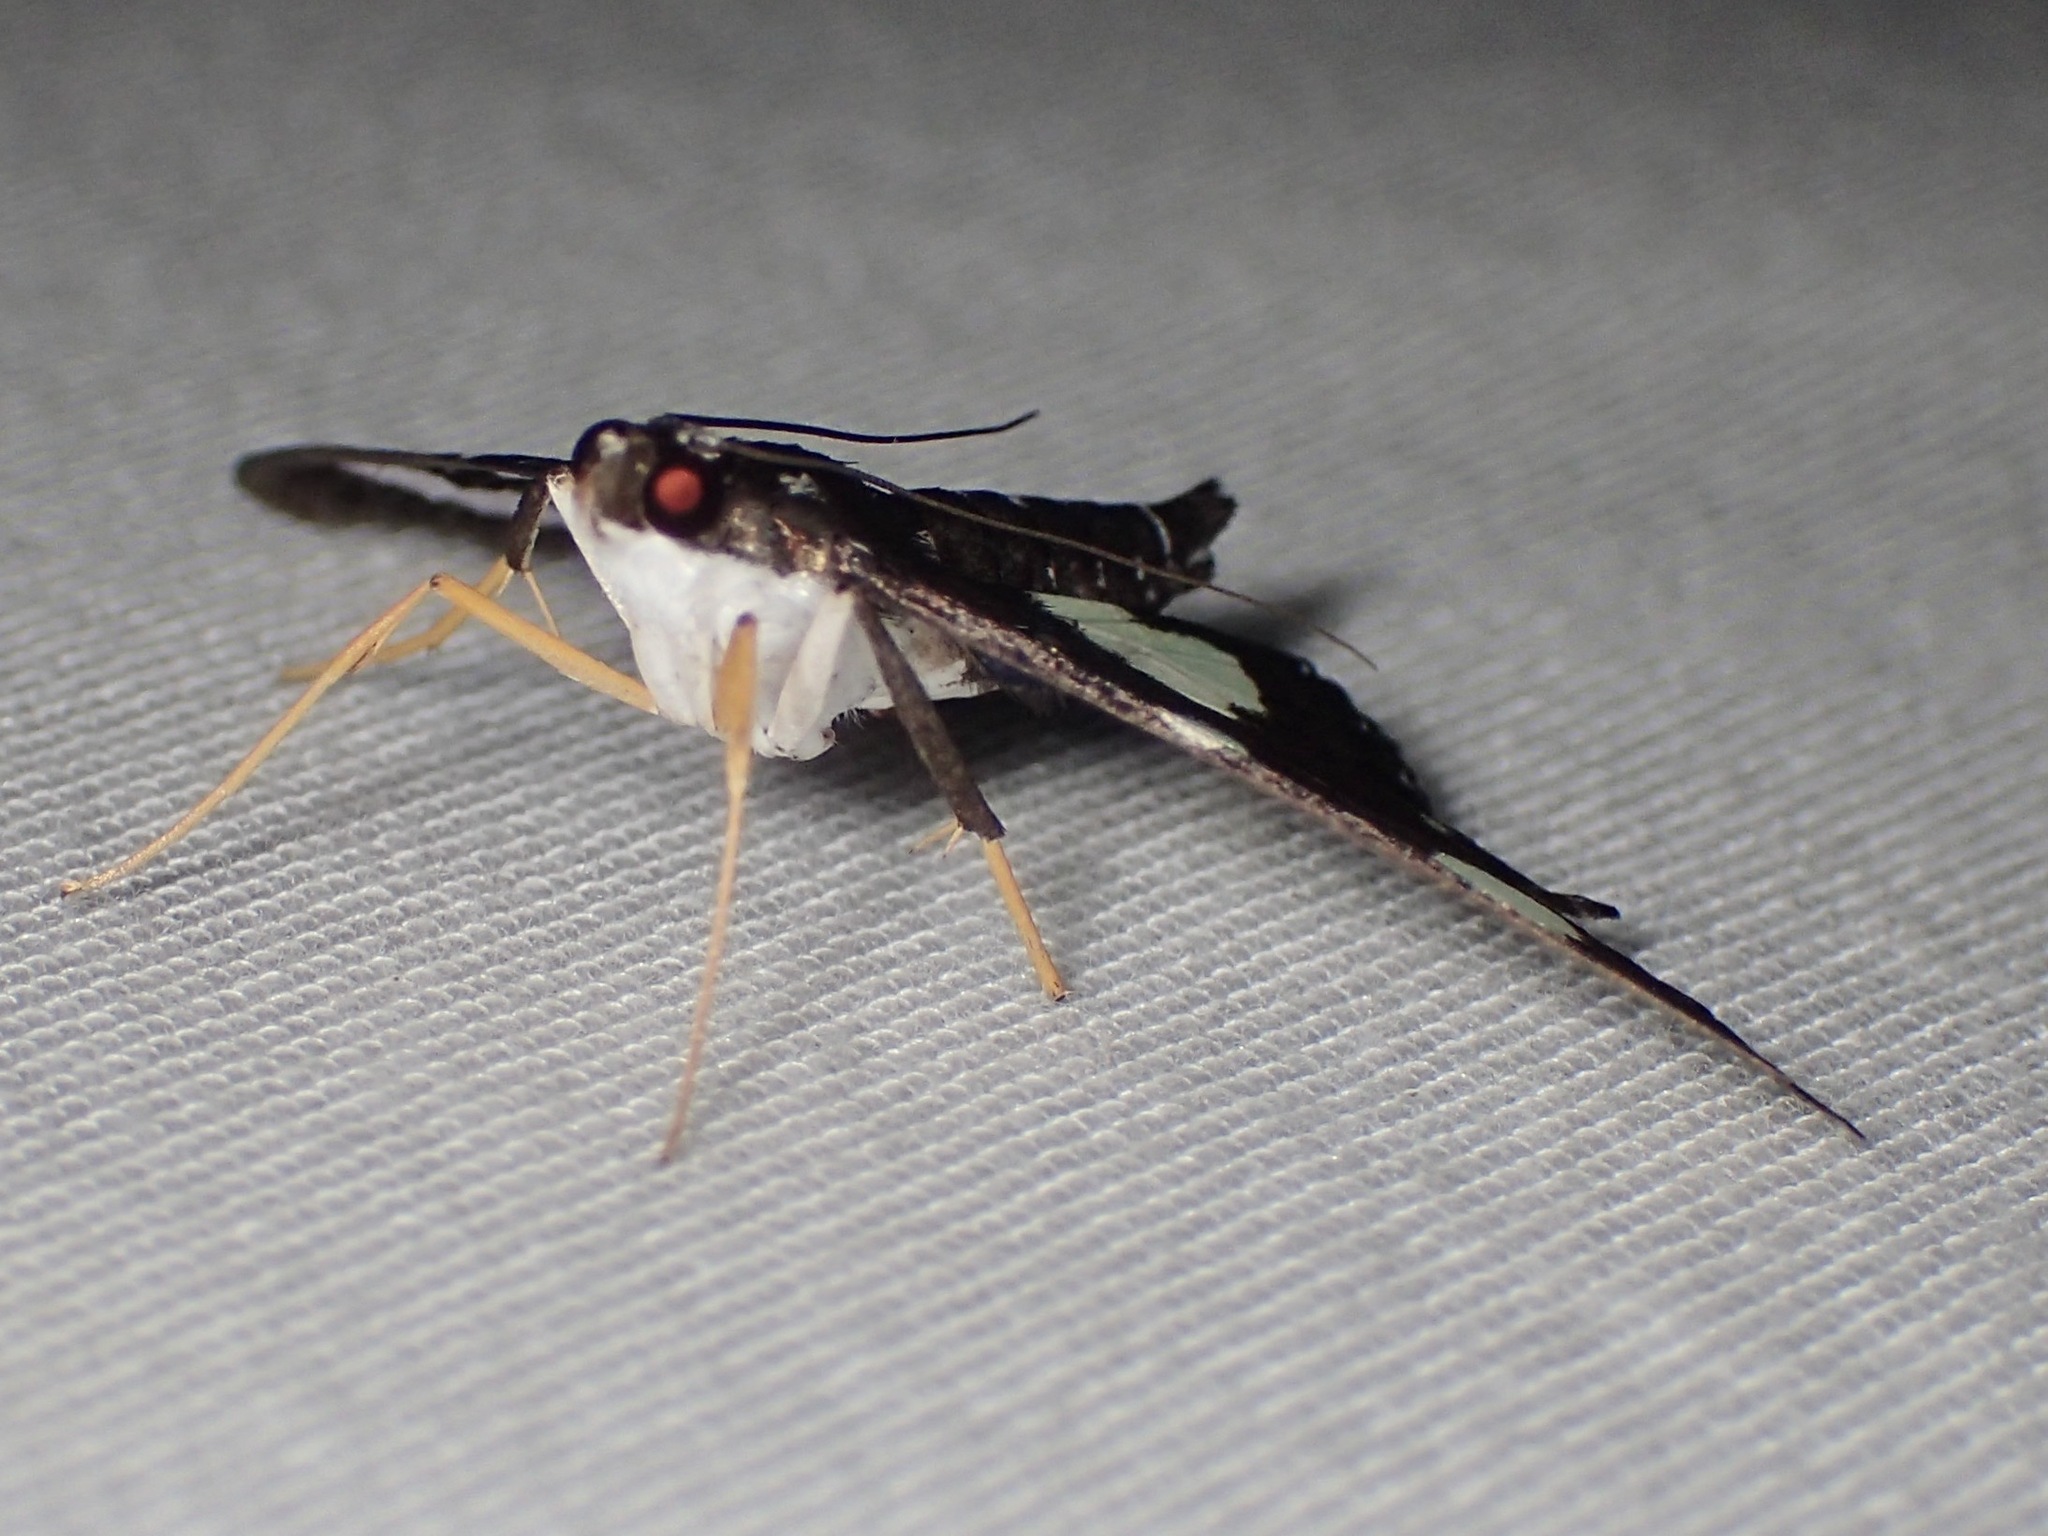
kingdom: Animalia
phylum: Arthropoda
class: Insecta
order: Lepidoptera
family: Crambidae
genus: Glyphodes
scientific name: Glyphodes doleschalii
